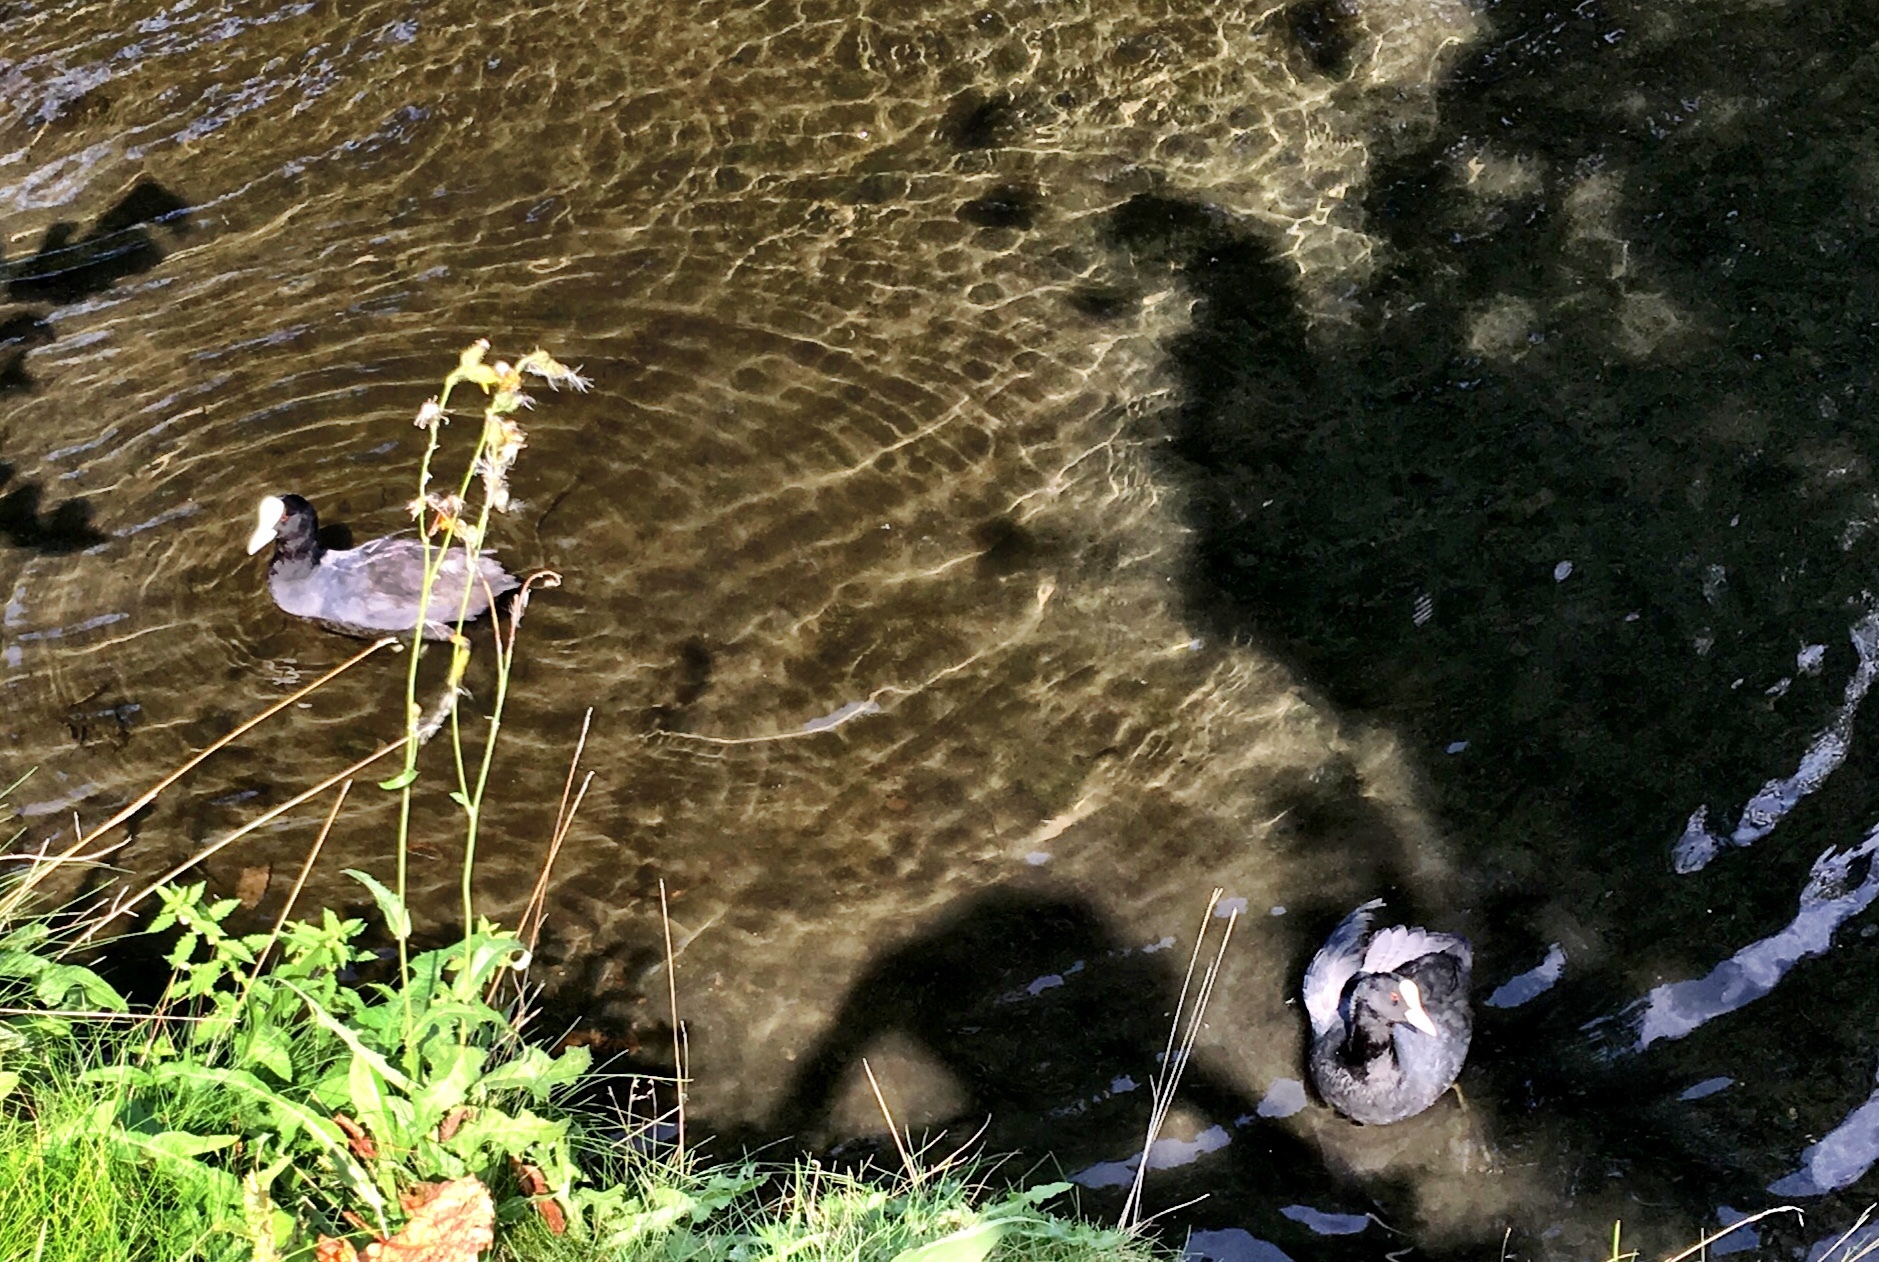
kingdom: Animalia
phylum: Chordata
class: Aves
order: Gruiformes
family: Rallidae
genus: Fulica
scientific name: Fulica atra
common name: Eurasian coot
